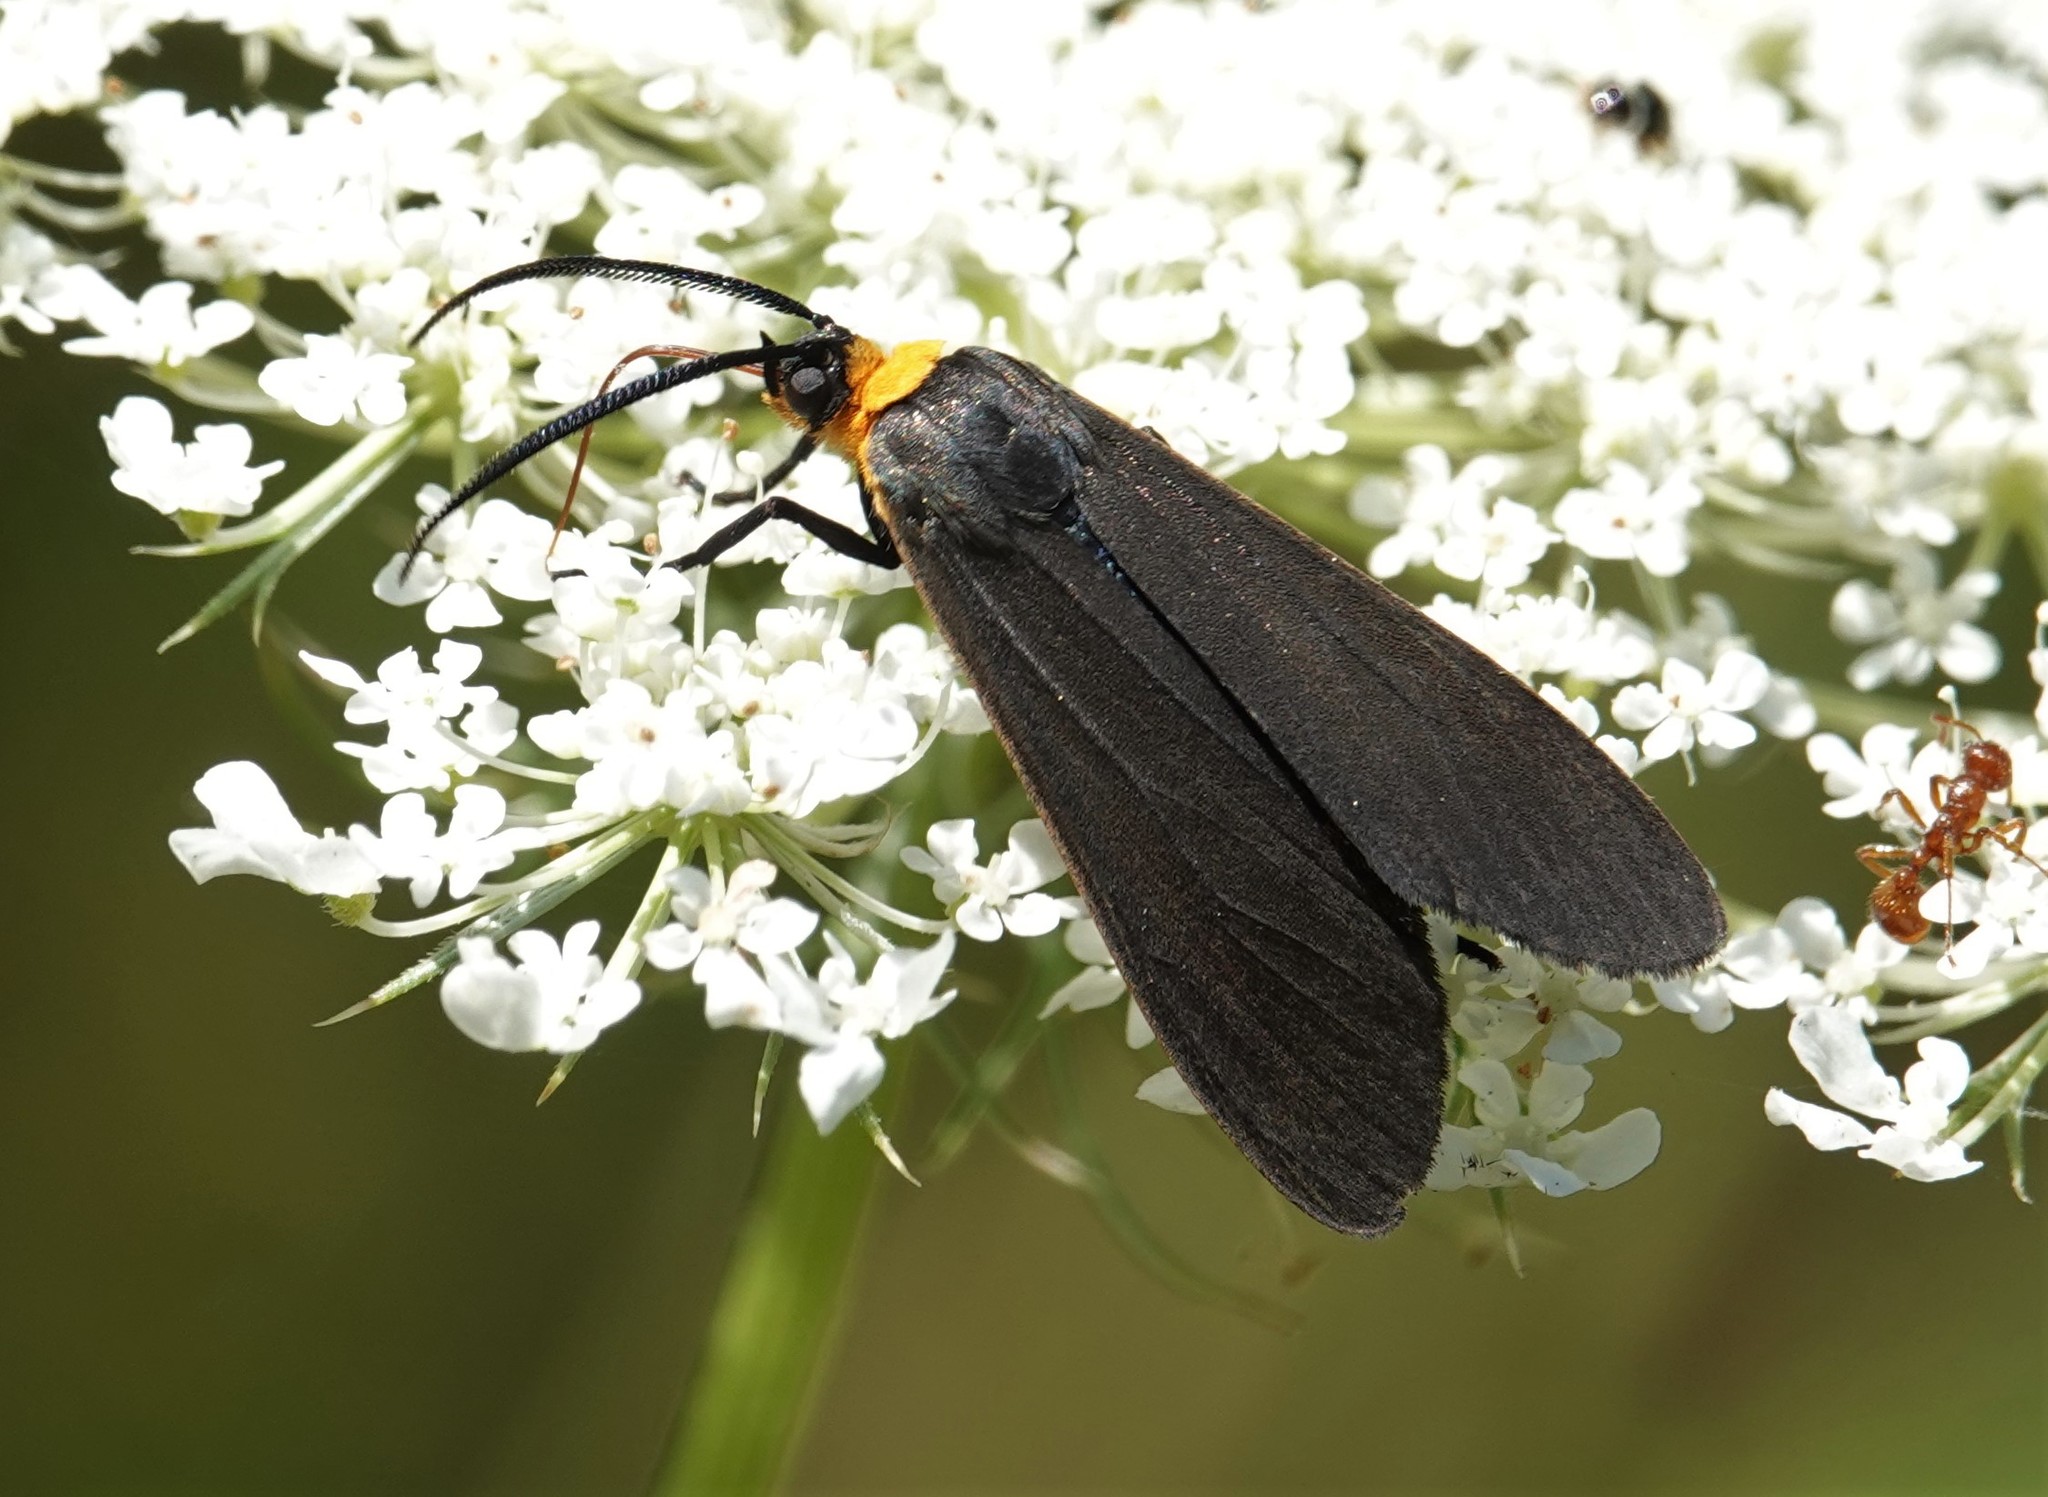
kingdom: Animalia
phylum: Arthropoda
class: Insecta
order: Lepidoptera
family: Erebidae
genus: Cisseps
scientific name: Cisseps fulvicollis
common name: Yellow-collared scape moth
